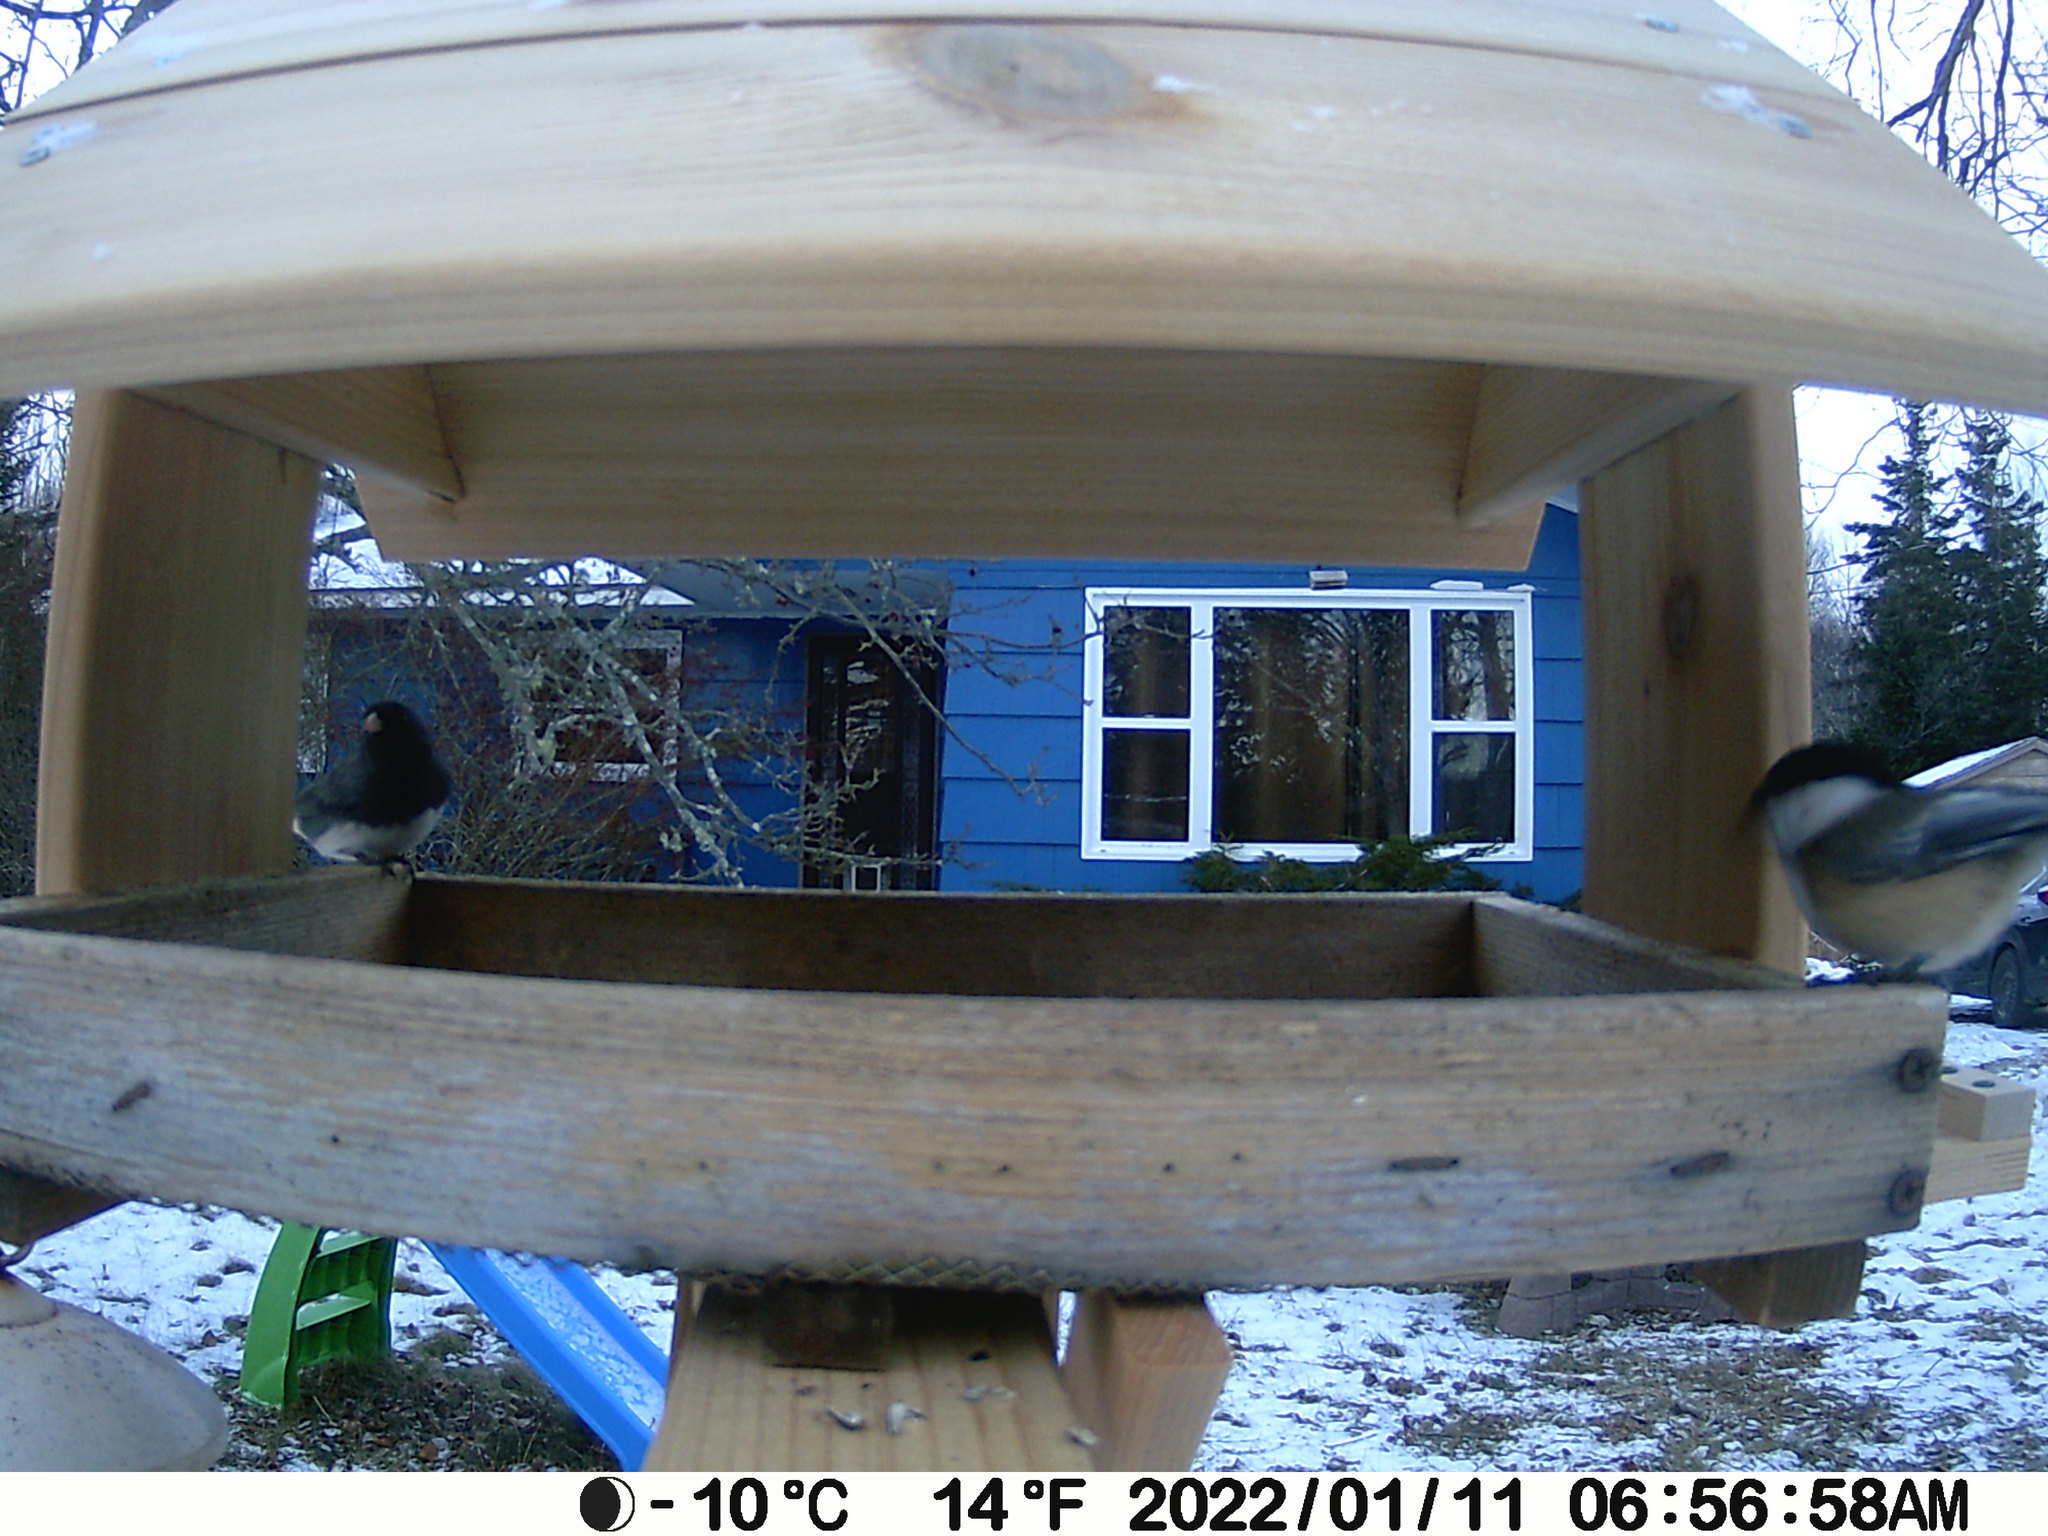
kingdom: Animalia
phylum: Chordata
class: Aves
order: Passeriformes
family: Passerellidae
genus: Junco
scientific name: Junco hyemalis
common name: Dark-eyed junco
